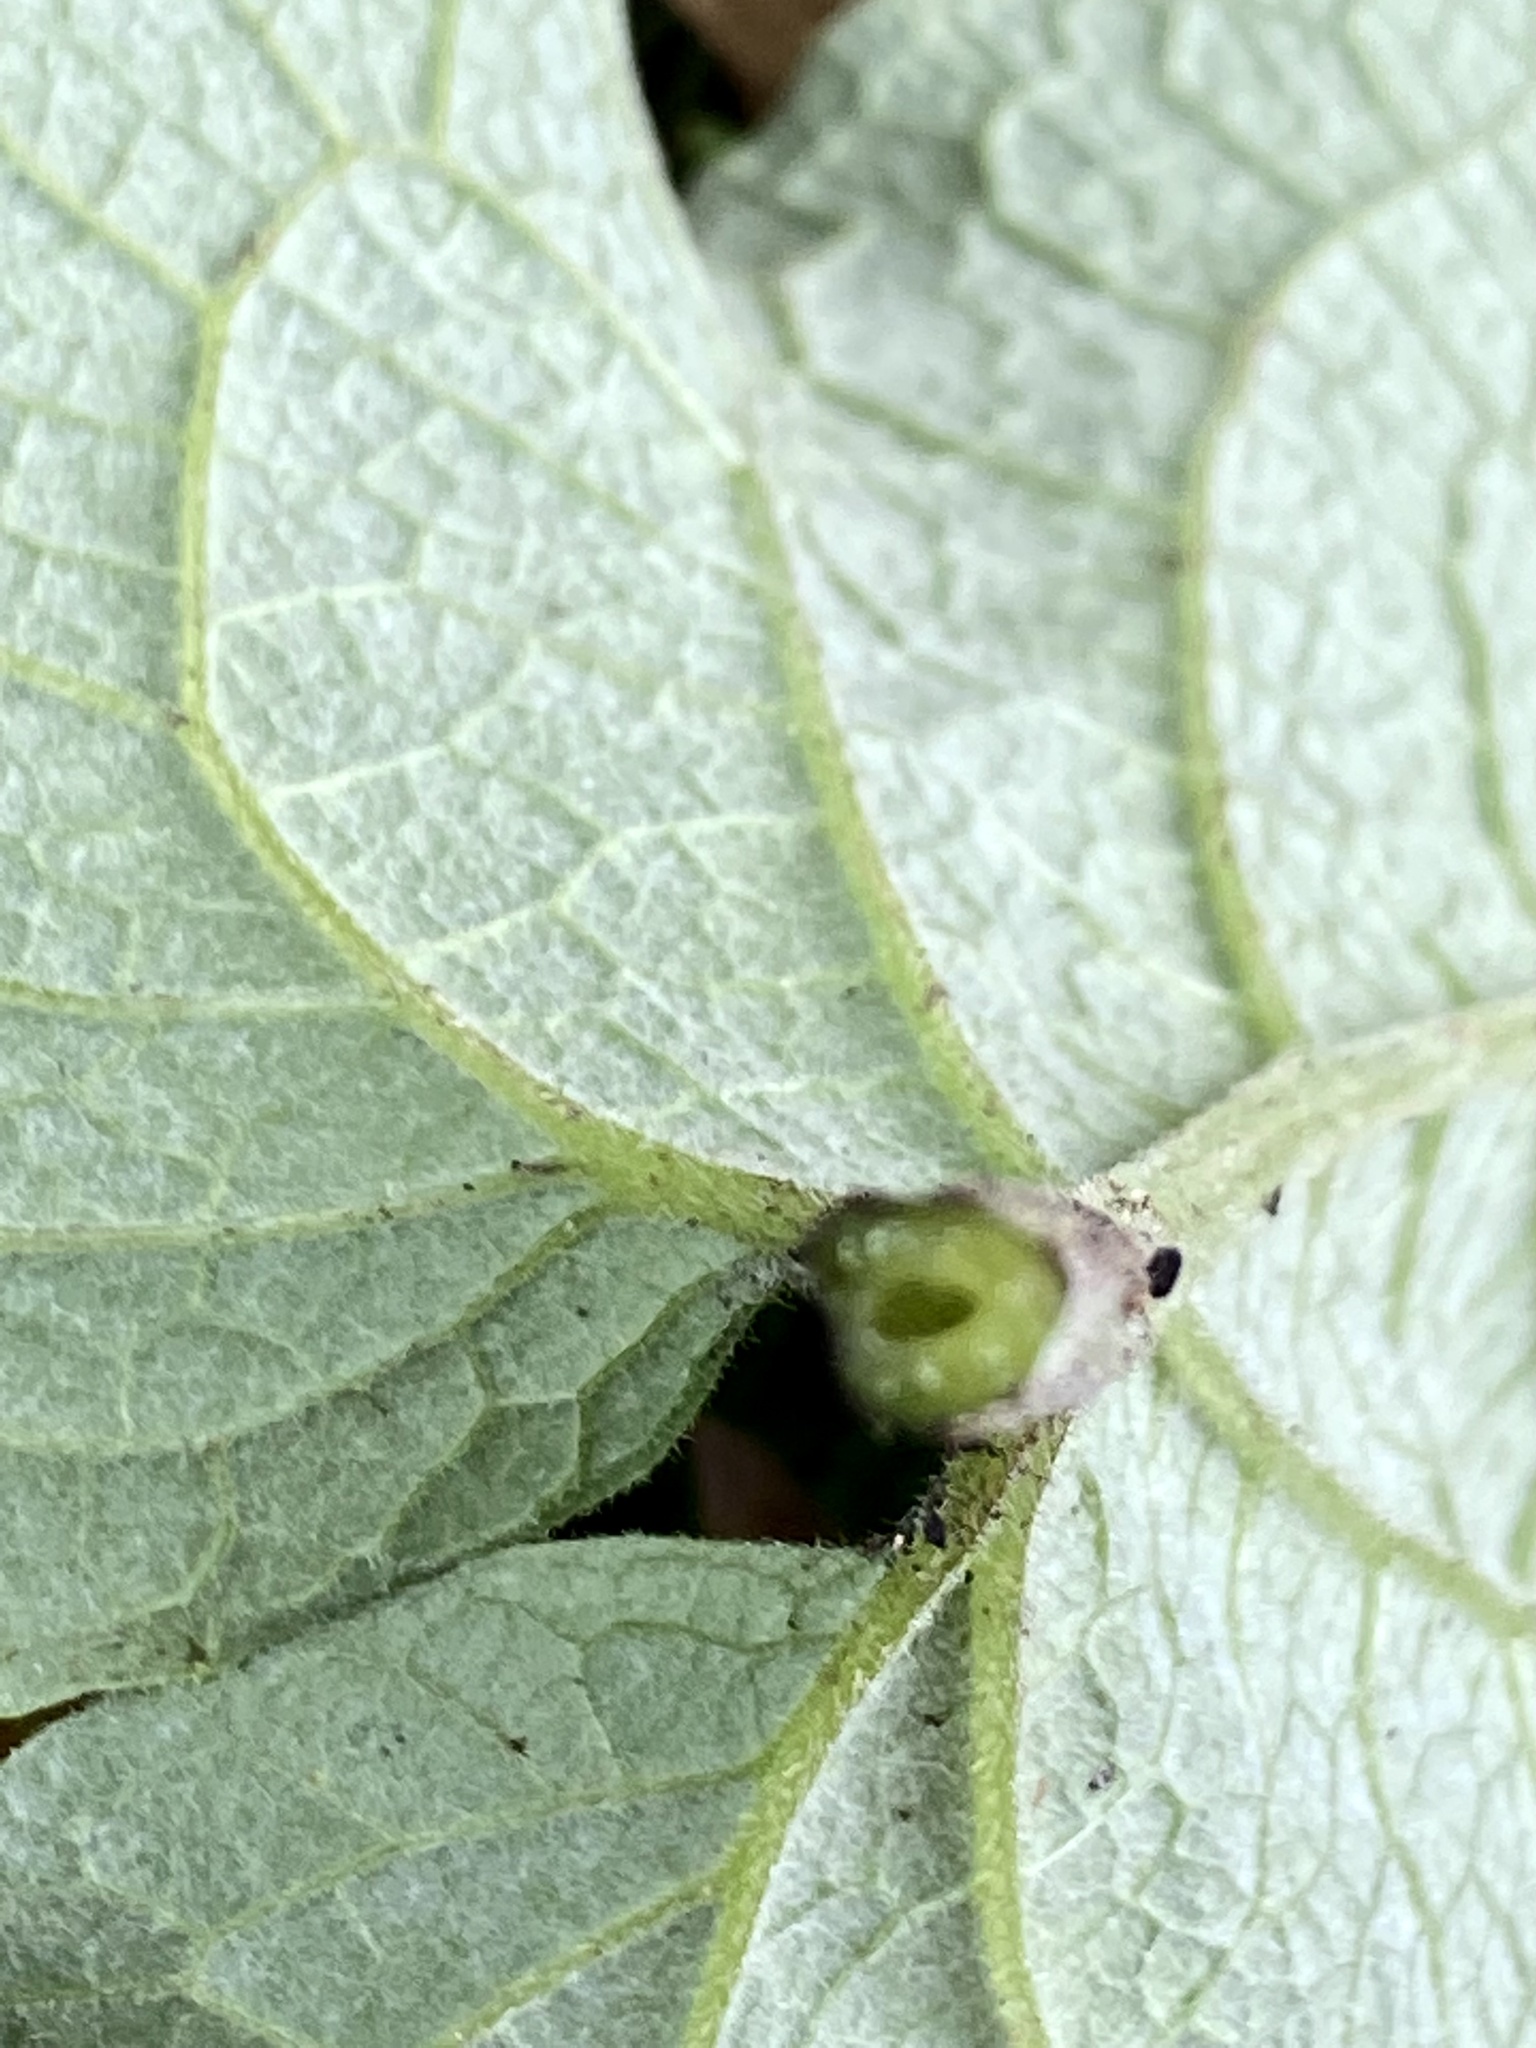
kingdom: Plantae
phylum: Tracheophyta
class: Magnoliopsida
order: Asterales
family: Asteraceae
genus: Arctium
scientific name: Arctium minus
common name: Lesser burdock
